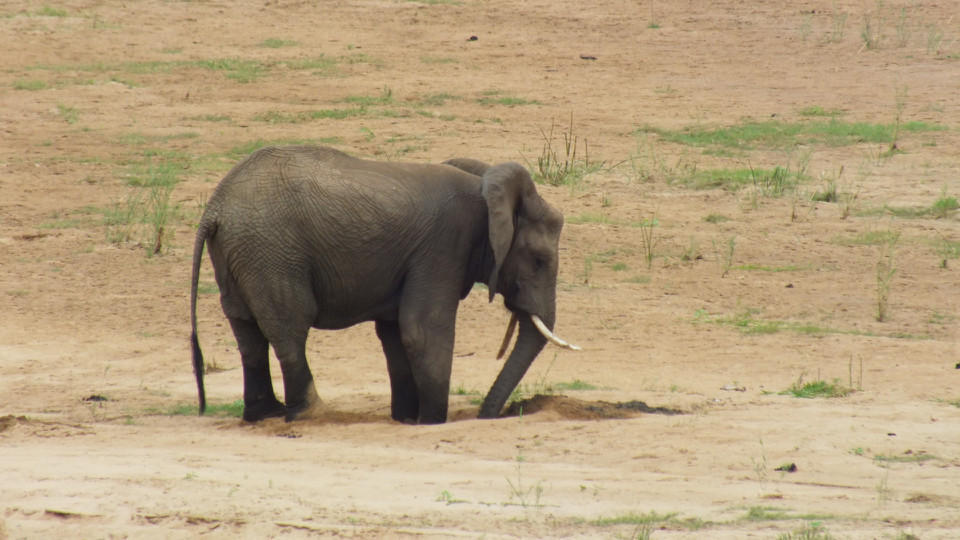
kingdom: Animalia
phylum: Chordata
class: Mammalia
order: Proboscidea
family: Elephantidae
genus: Loxodonta
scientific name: Loxodonta africana
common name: African elephant
